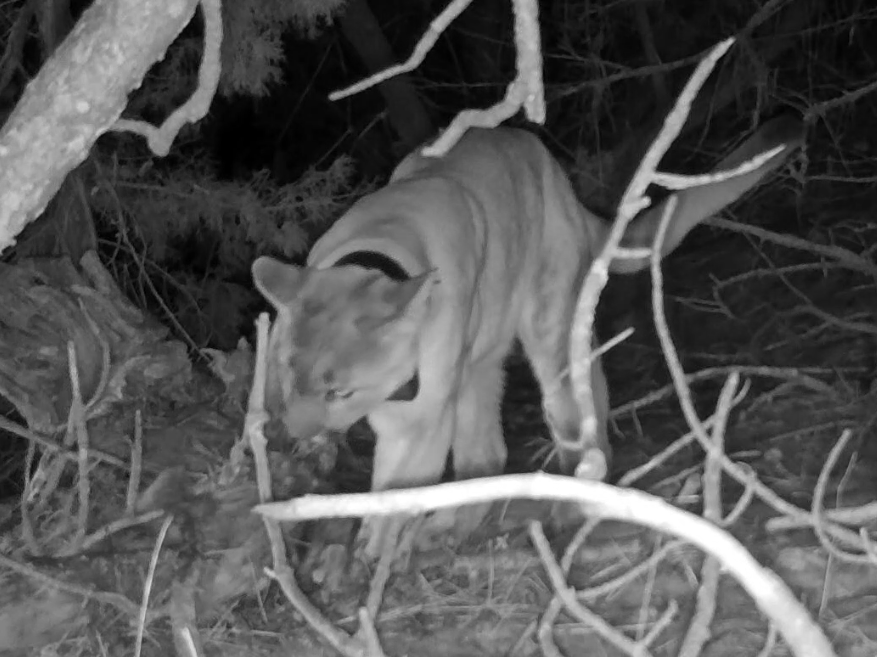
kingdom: Animalia
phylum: Chordata
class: Mammalia
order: Carnivora
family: Felidae
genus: Puma
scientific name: Puma concolor
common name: Puma
